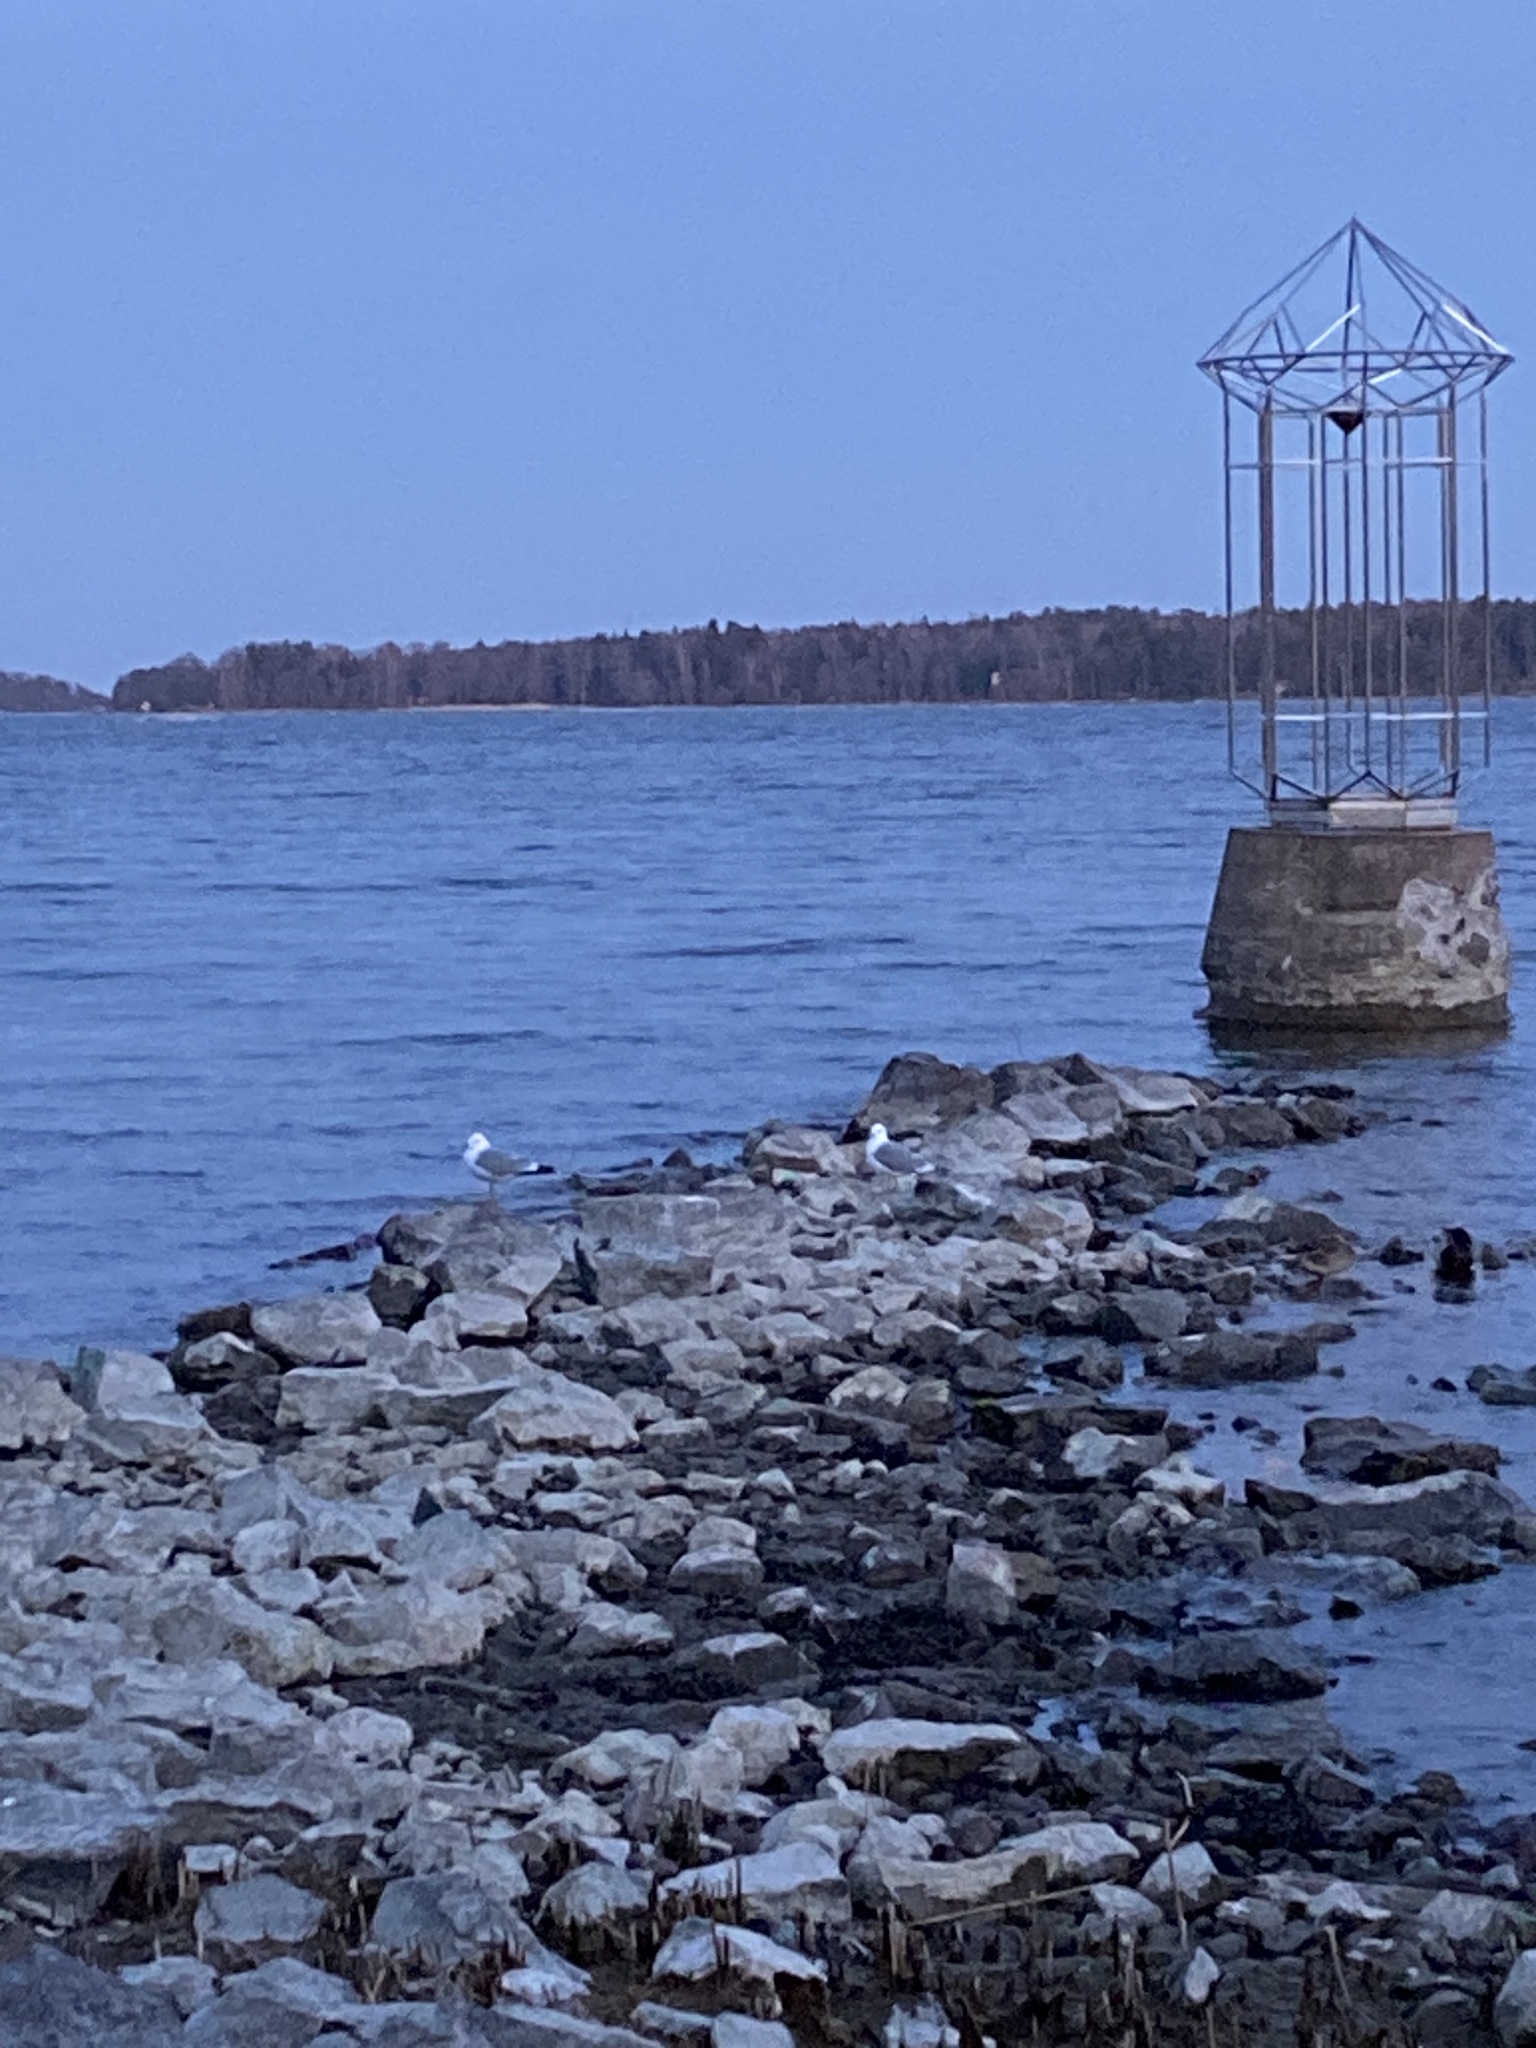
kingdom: Animalia
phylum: Chordata
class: Aves
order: Charadriiformes
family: Laridae
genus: Larus
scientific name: Larus canus
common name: Mew gull
